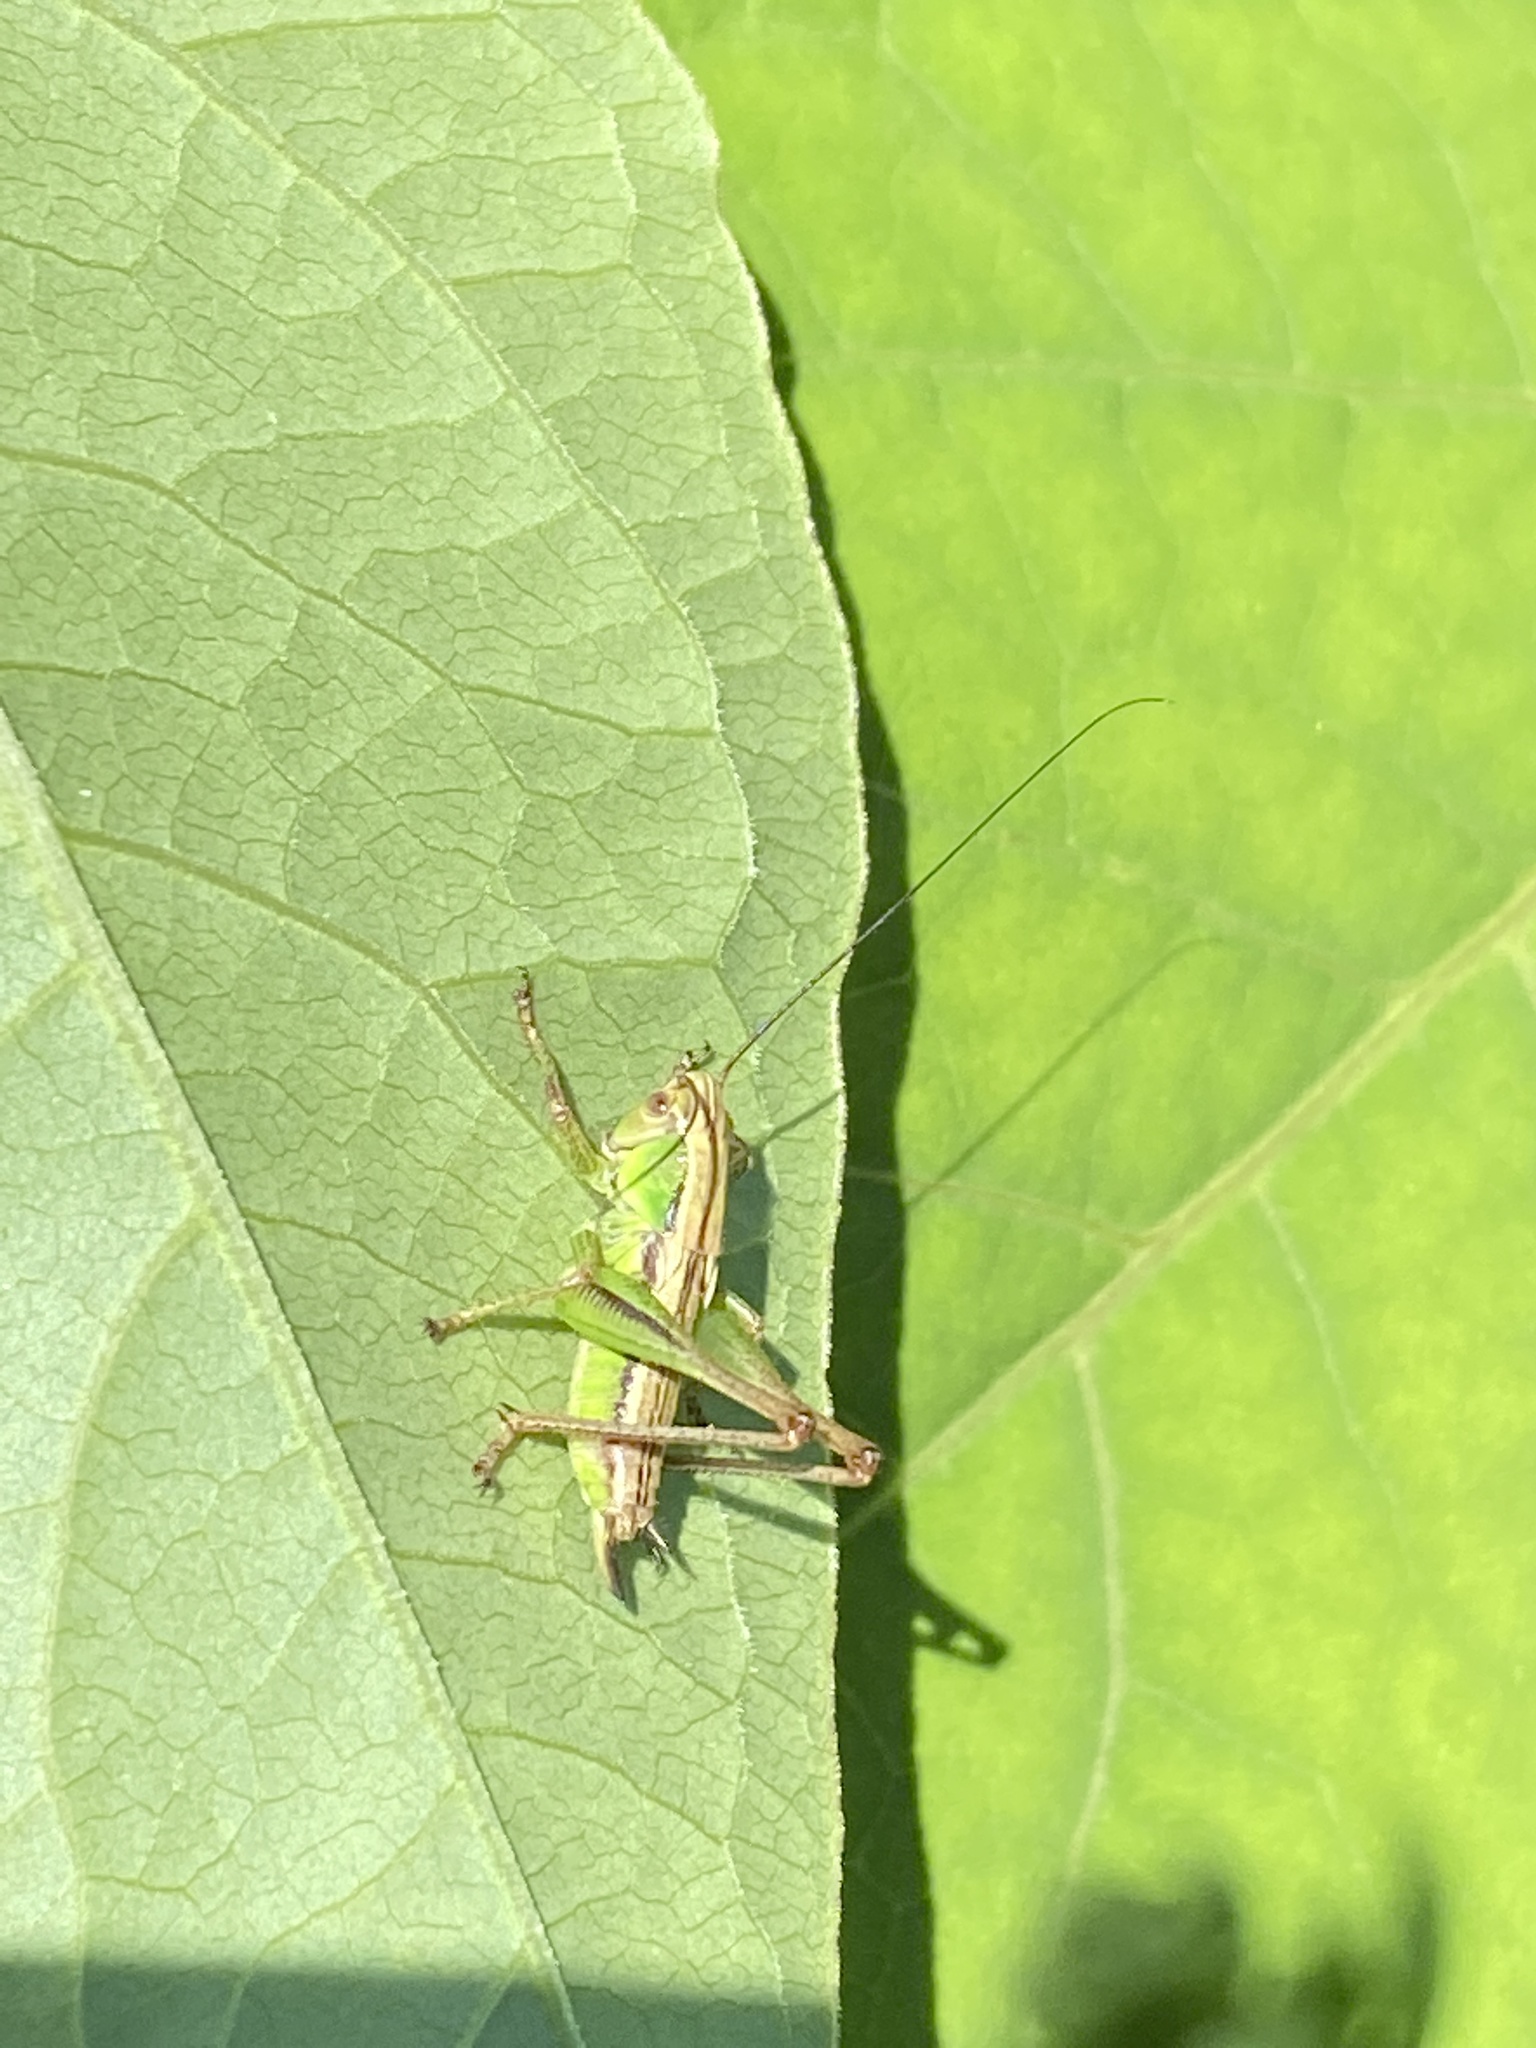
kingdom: Animalia
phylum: Arthropoda
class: Insecta
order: Orthoptera
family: Tettigoniidae
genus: Roeseliana
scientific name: Roeseliana roeselii
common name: Roesel's bush cricket
